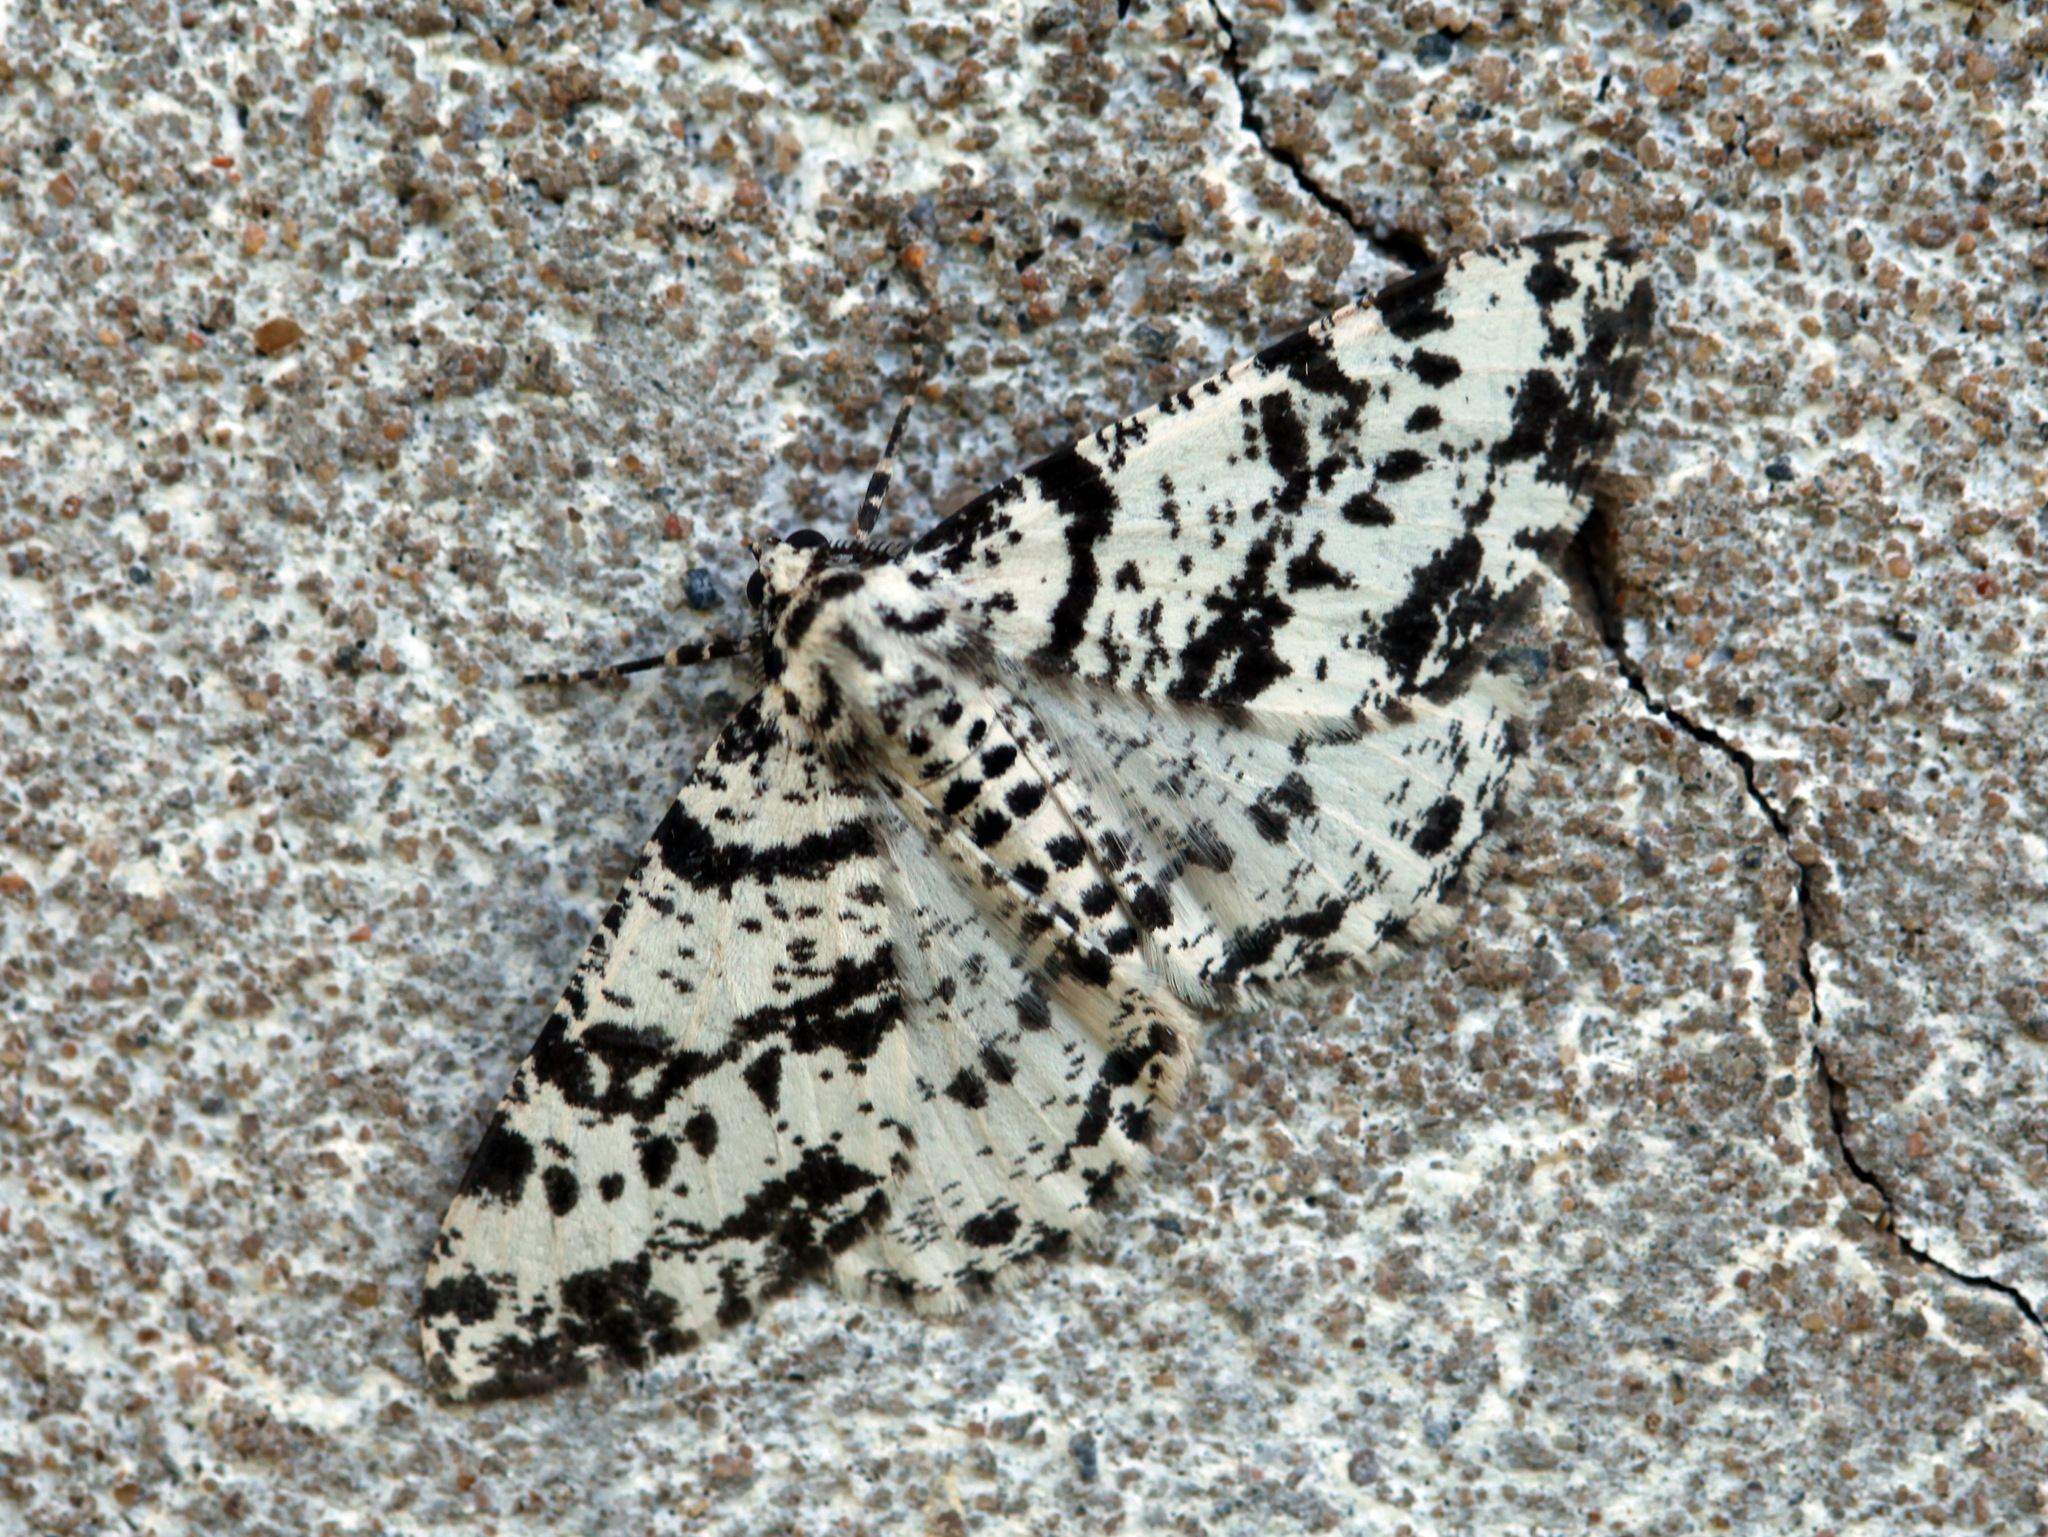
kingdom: Animalia
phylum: Arthropoda
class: Insecta
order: Lepidoptera
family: Geometridae
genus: Deileptenia
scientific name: Deileptenia mandshuriaria
